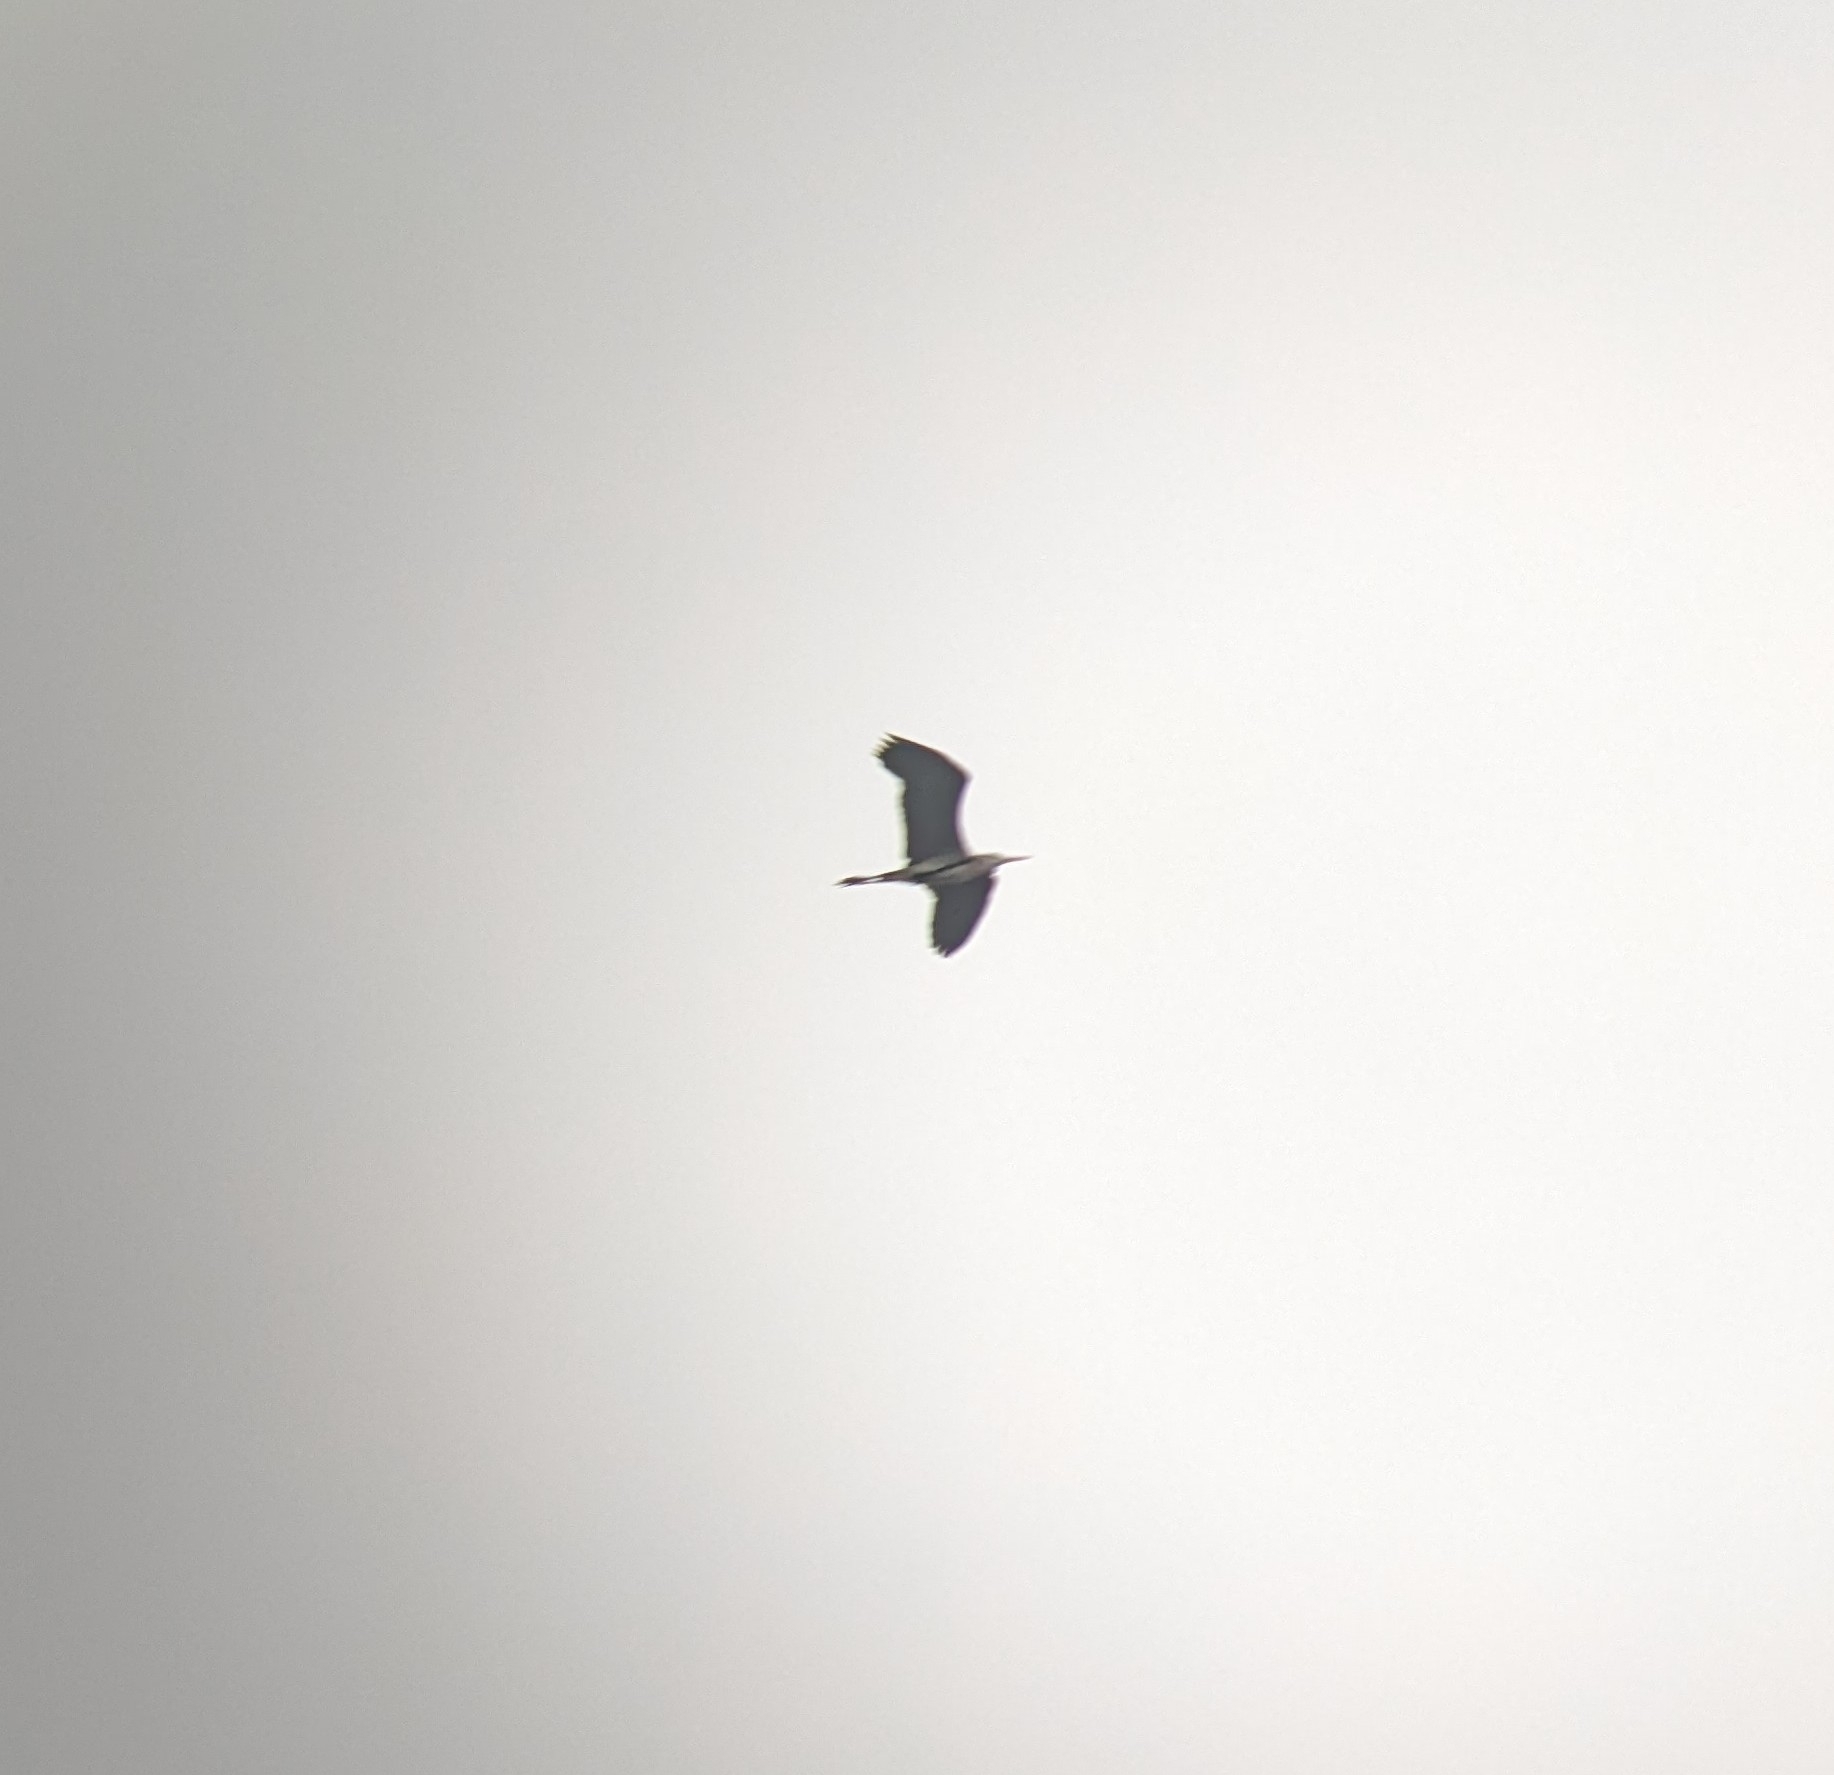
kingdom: Animalia
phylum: Chordata
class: Aves
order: Pelecaniformes
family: Ardeidae
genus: Ardea
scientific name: Ardea cinerea
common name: Grey heron
